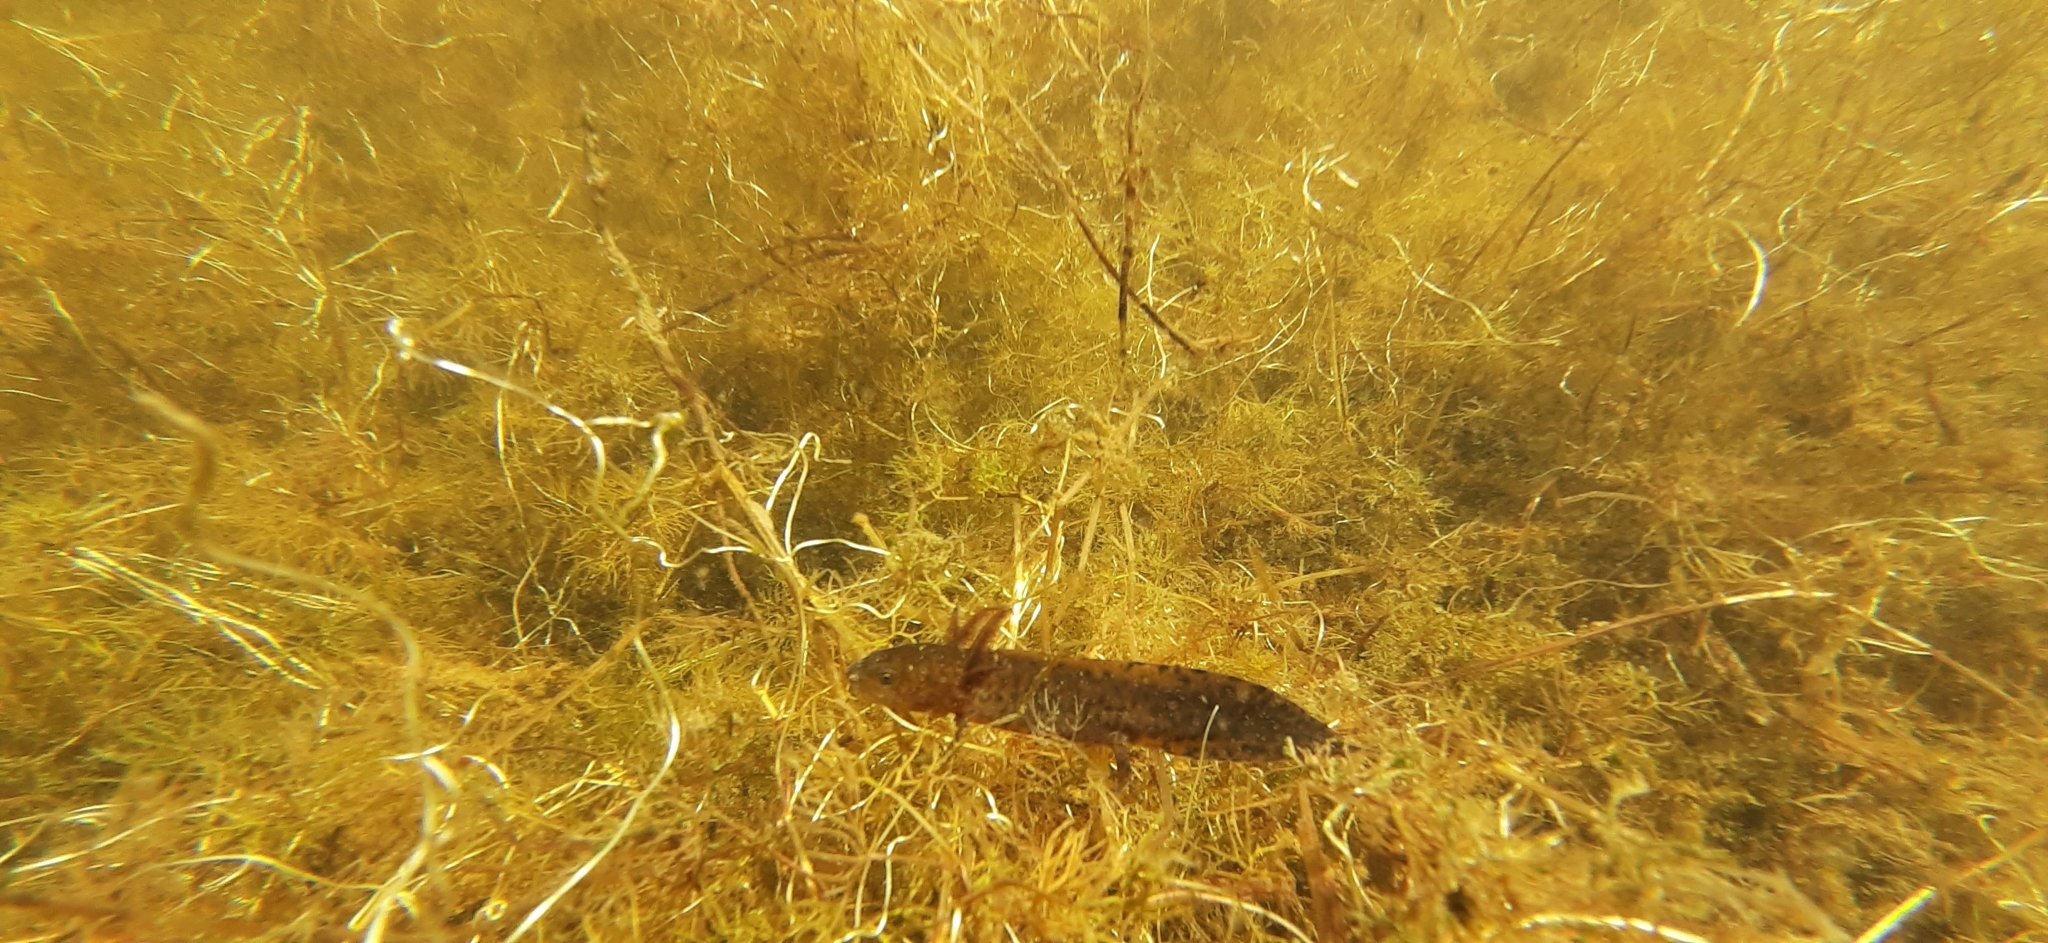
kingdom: Animalia
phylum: Chordata
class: Amphibia
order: Caudata
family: Salamandridae
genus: Triturus
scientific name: Triturus cristatus
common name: Crested newt
